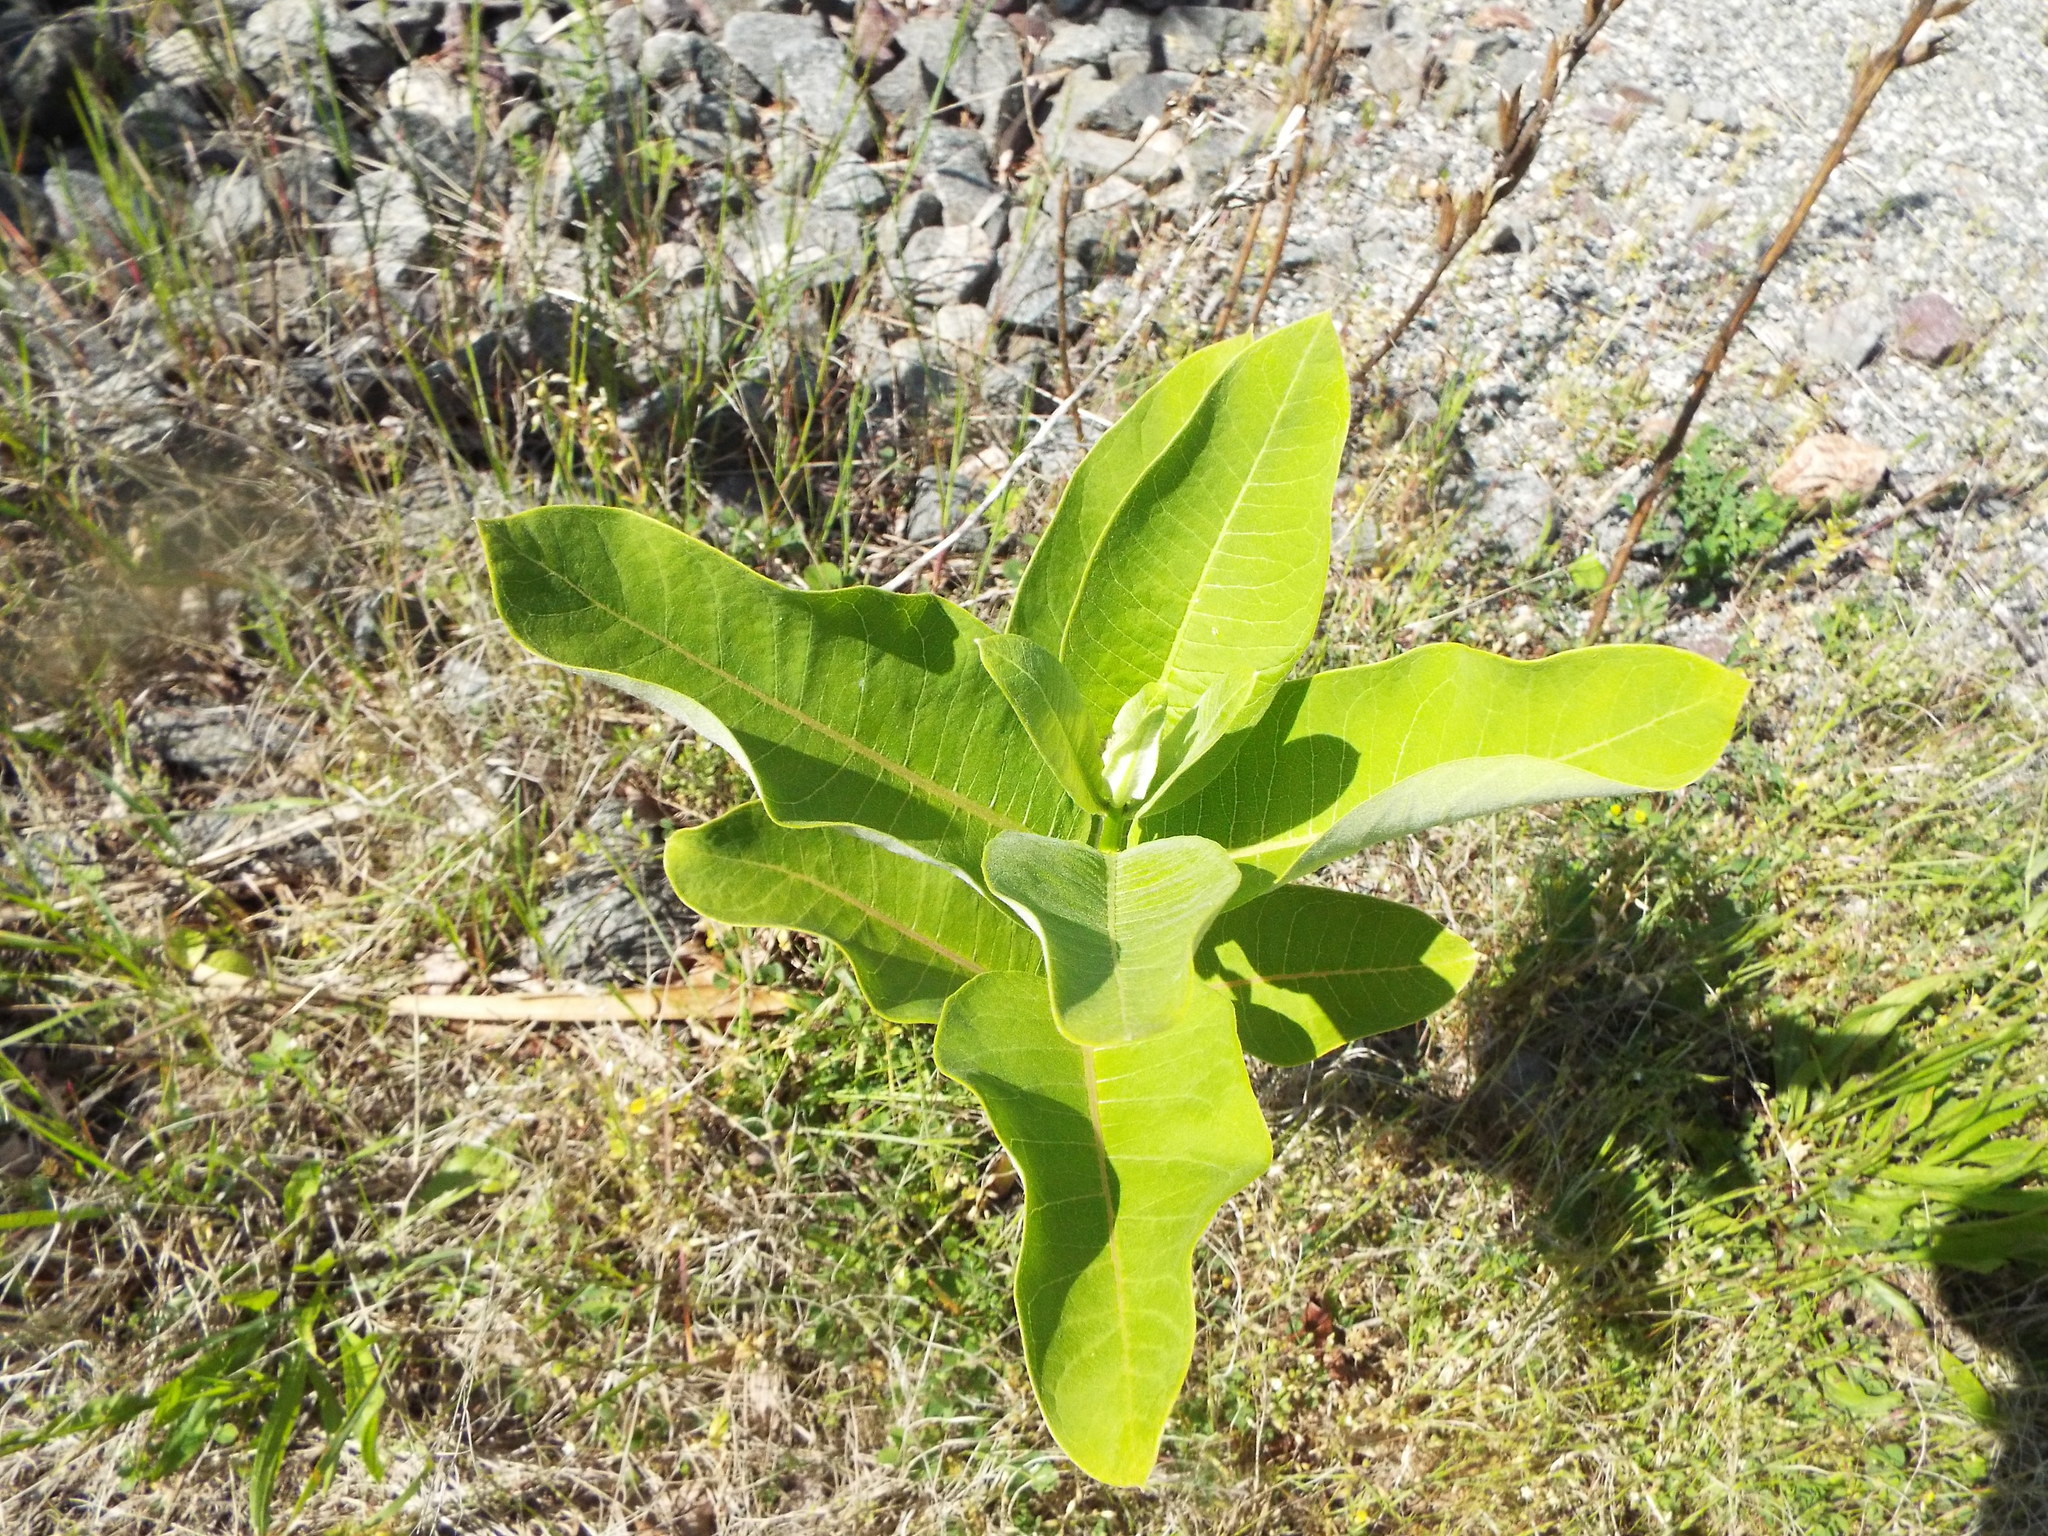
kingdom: Plantae
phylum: Tracheophyta
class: Magnoliopsida
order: Gentianales
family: Apocynaceae
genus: Asclepias
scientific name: Asclepias syriaca
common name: Common milkweed
